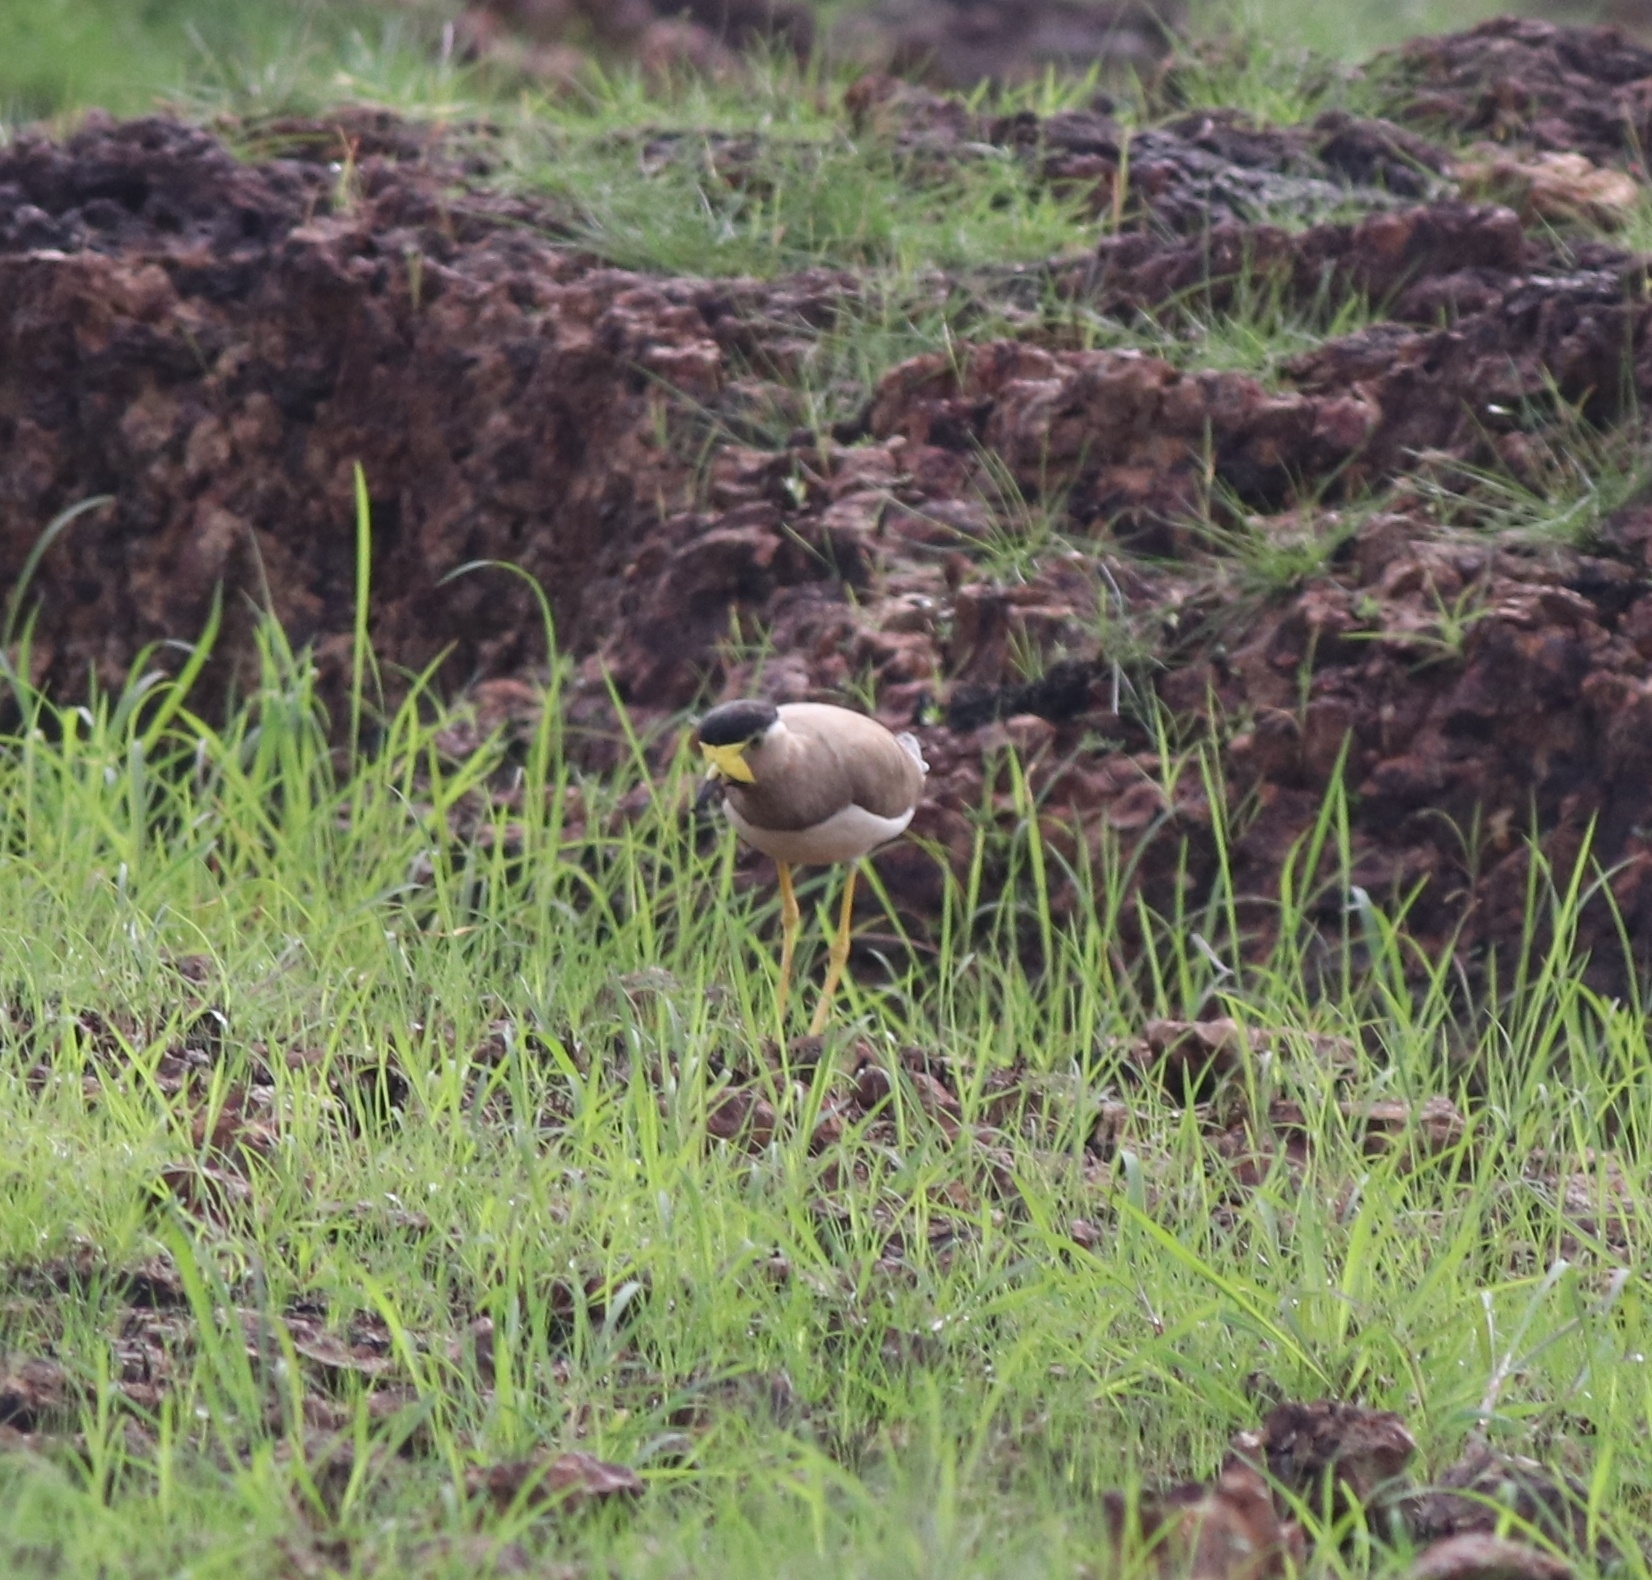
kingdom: Animalia
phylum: Chordata
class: Aves
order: Charadriiformes
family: Charadriidae
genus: Vanellus
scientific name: Vanellus malabaricus
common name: Yellow-wattled lapwing
